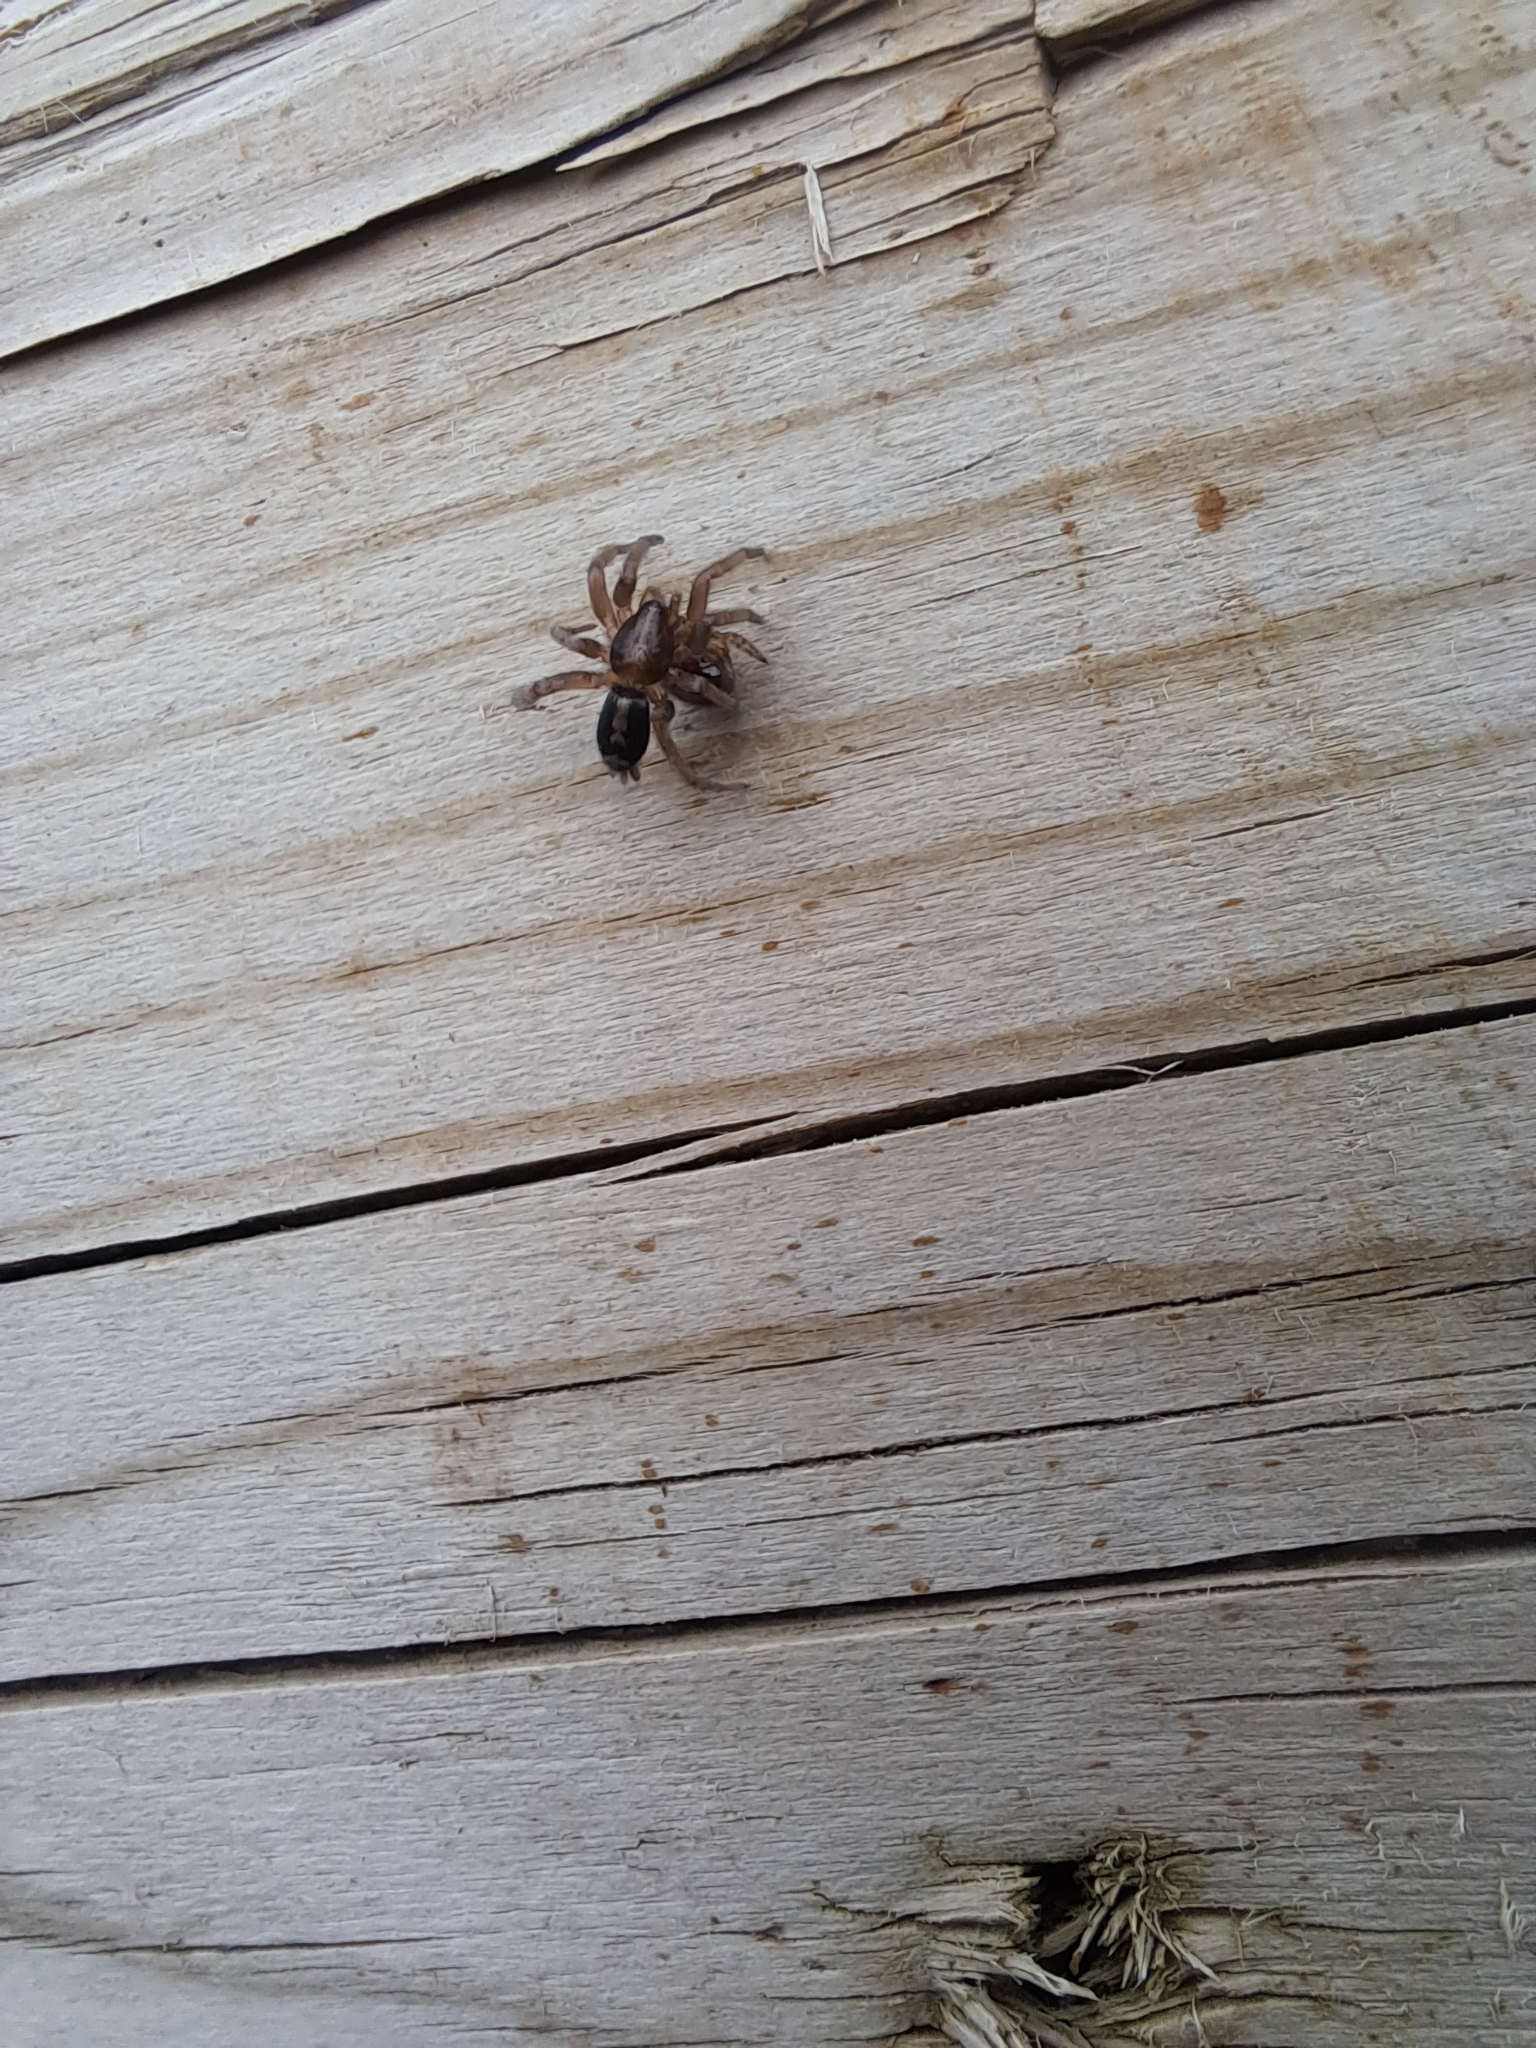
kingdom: Animalia
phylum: Arthropoda
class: Arachnida
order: Araneae
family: Gnaphosidae
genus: Herpyllus
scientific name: Herpyllus ecclesiasticus
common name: Eastern parson spider
